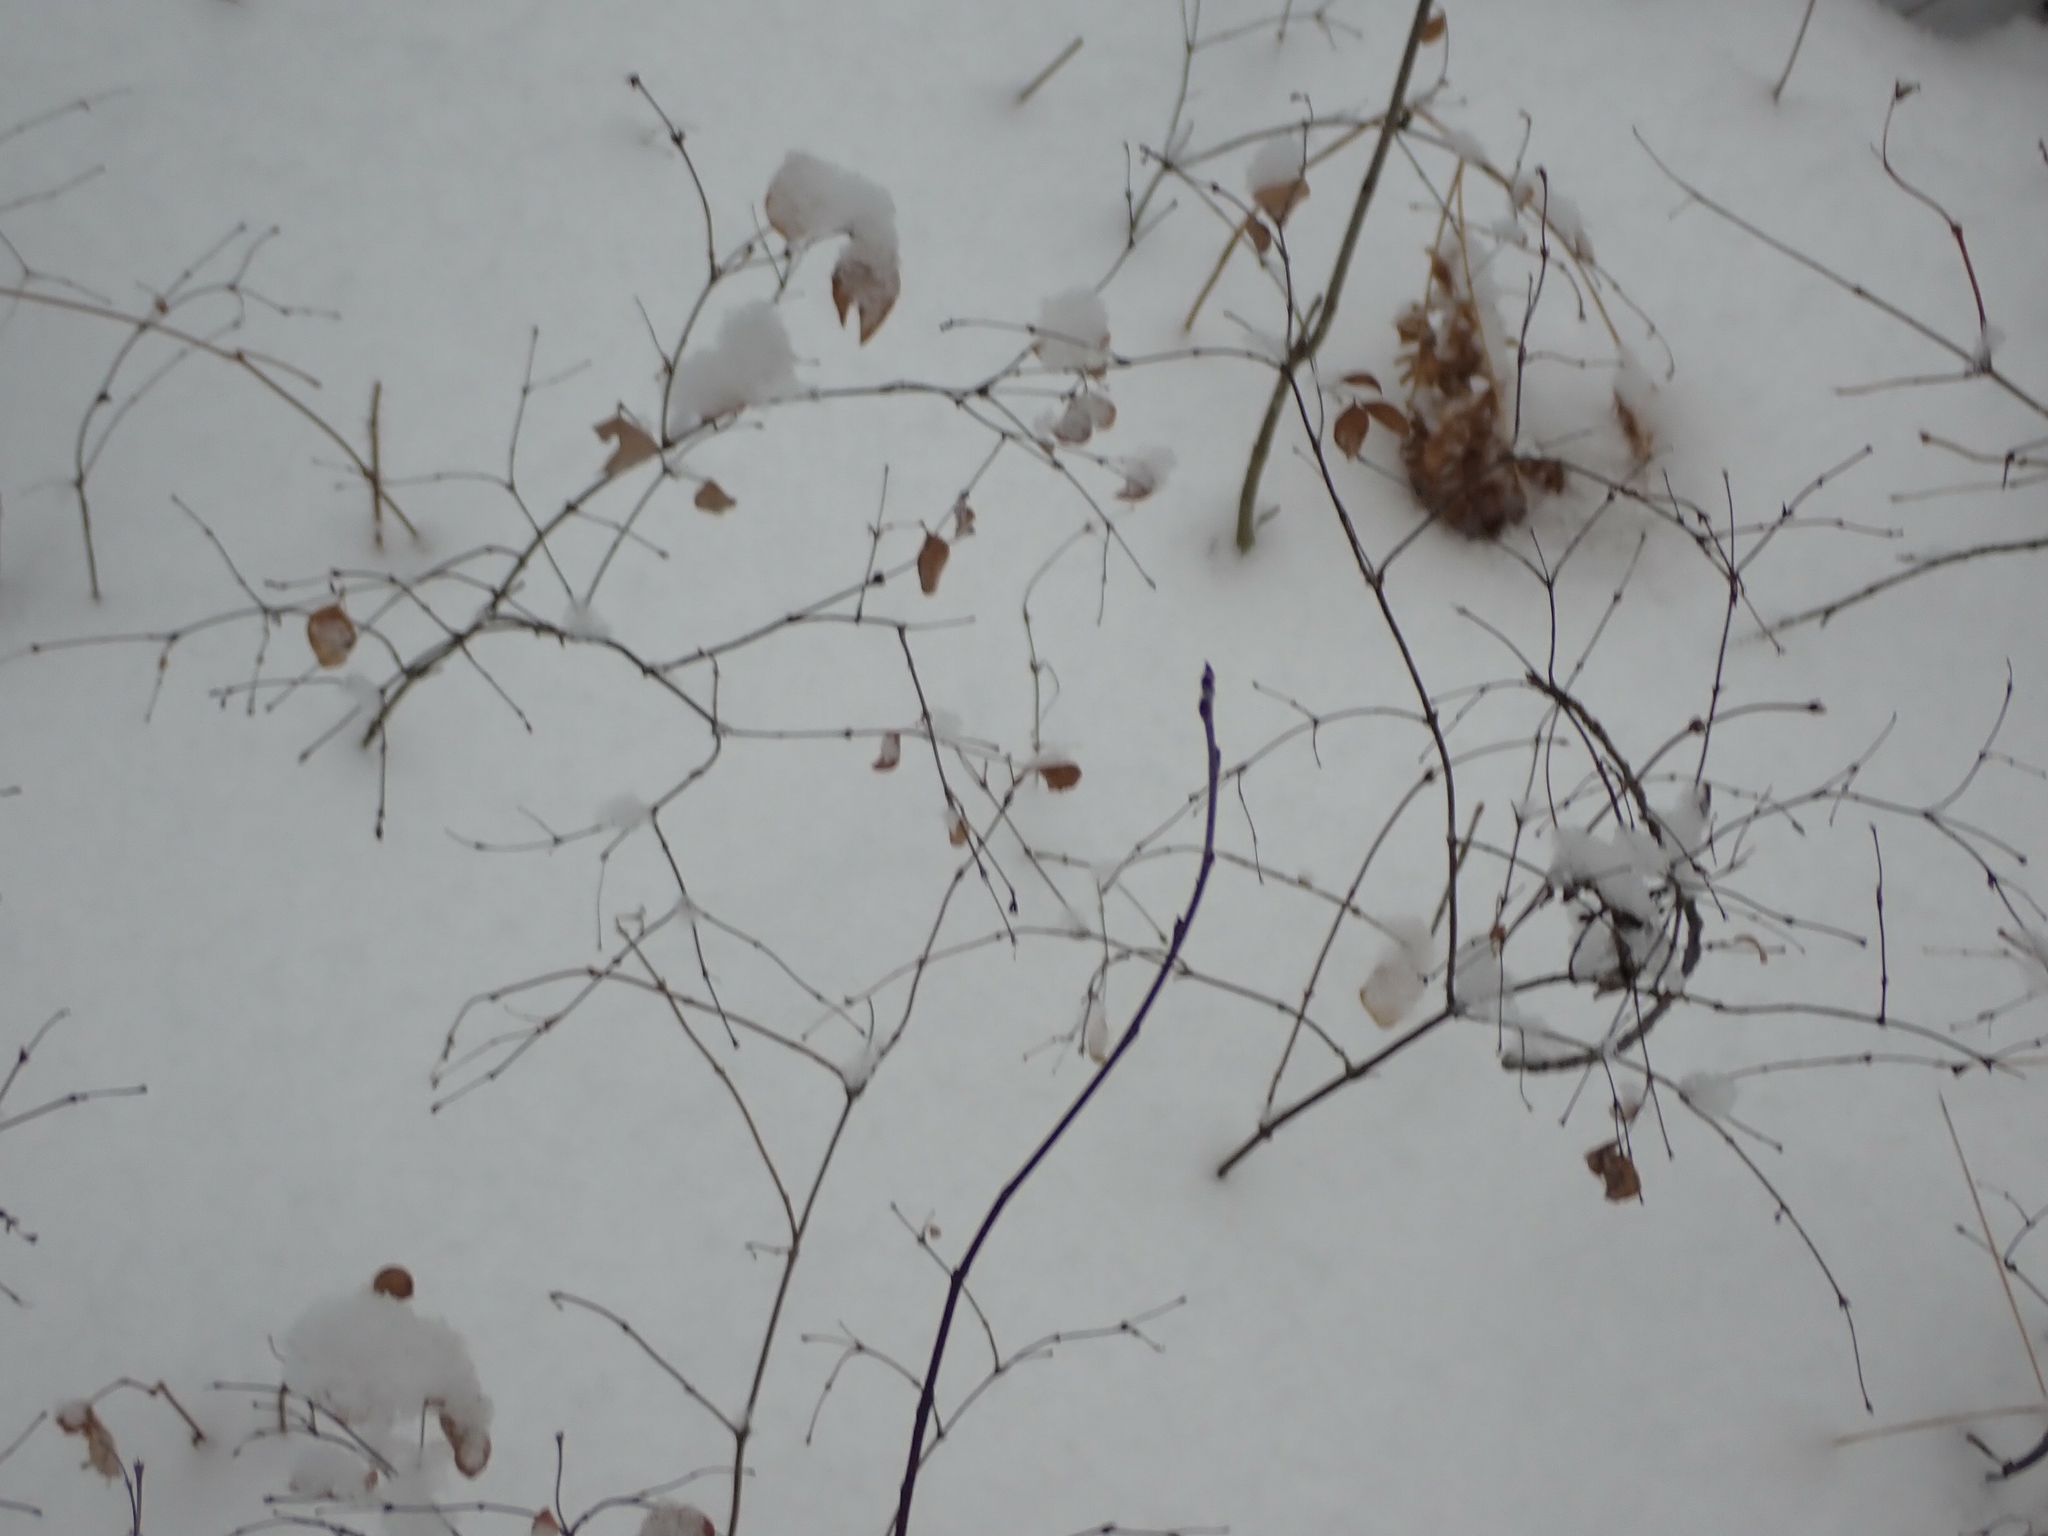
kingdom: Plantae
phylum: Tracheophyta
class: Magnoliopsida
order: Dipsacales
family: Caprifoliaceae
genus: Symphoricarpos
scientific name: Symphoricarpos occidentalis
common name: Wolfberry
